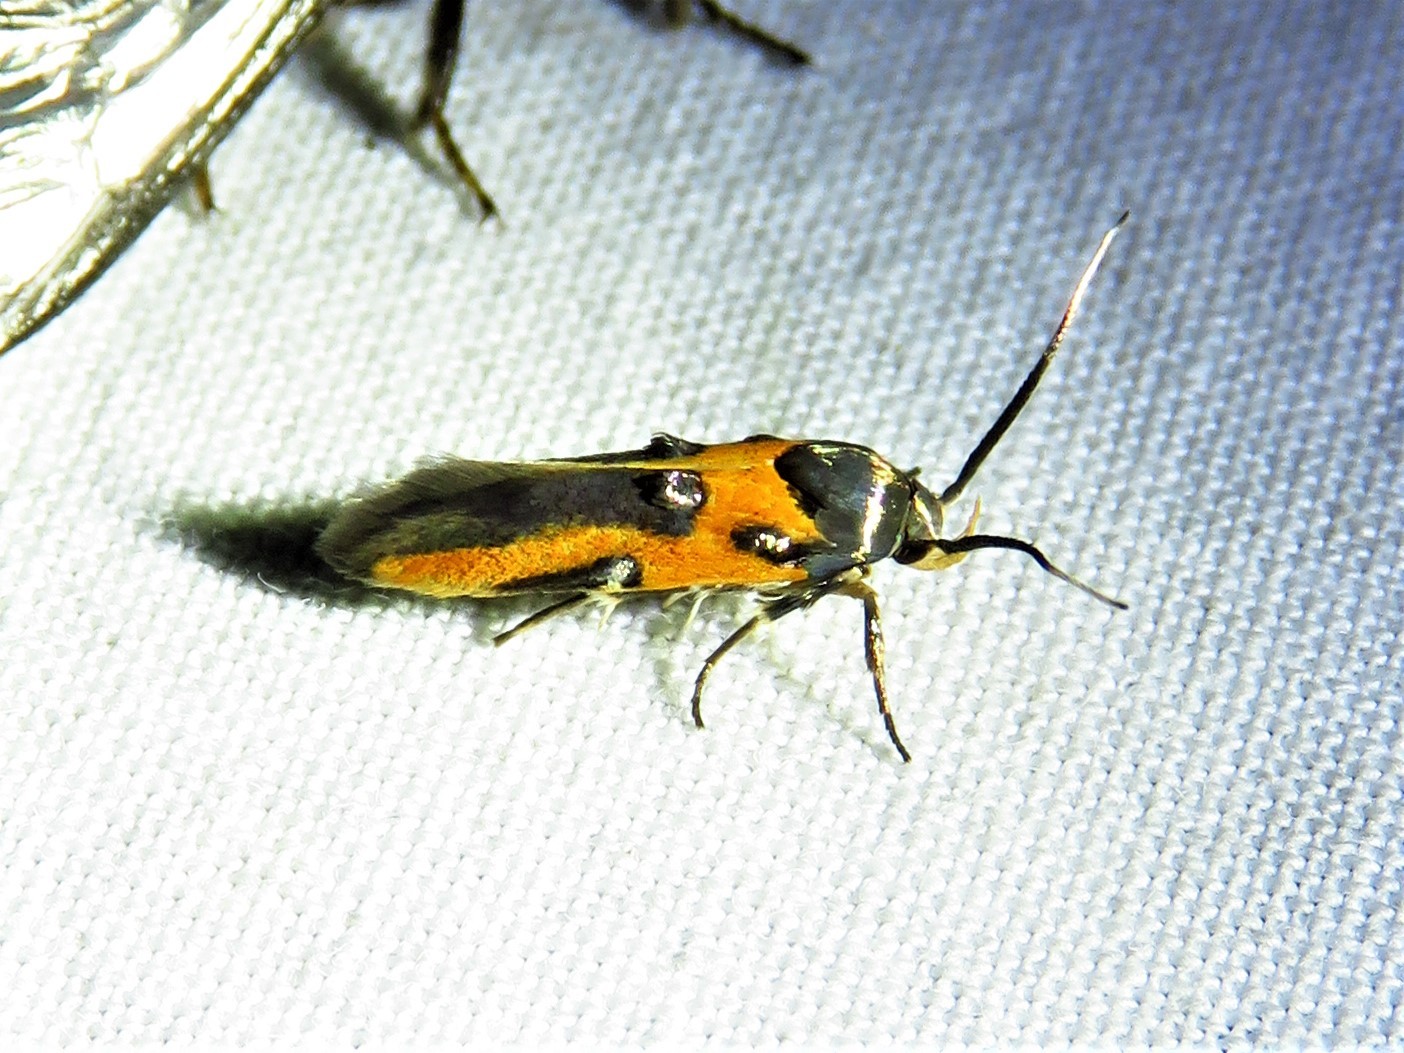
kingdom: Animalia
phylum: Arthropoda
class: Insecta
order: Lepidoptera
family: Cosmopterigidae
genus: Euclemensia
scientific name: Euclemensia bassettella
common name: Kermes scale moth
